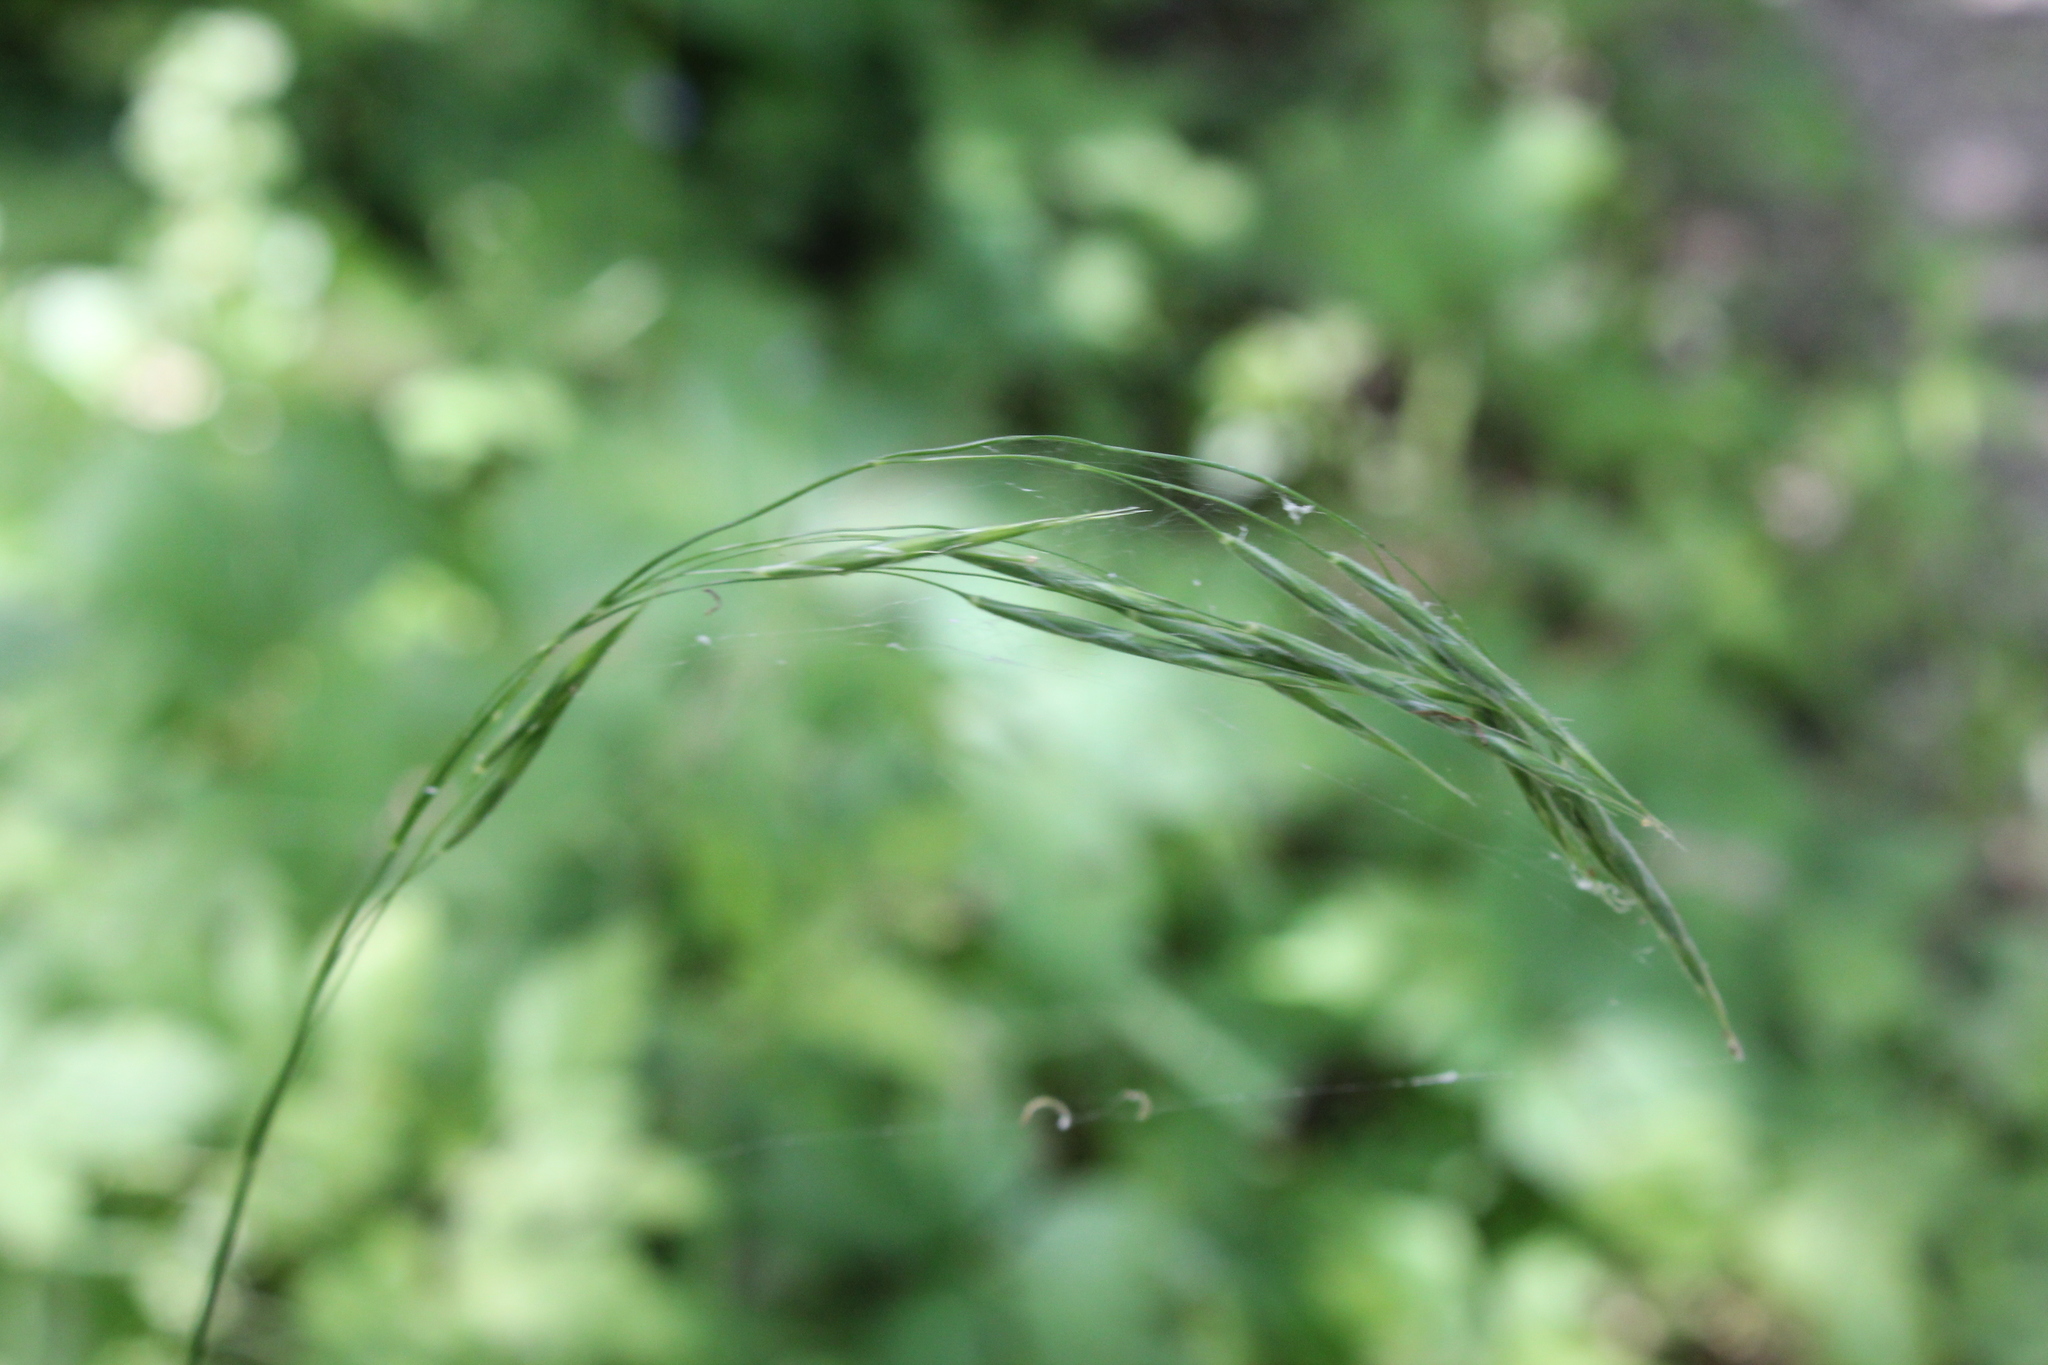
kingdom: Plantae
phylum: Tracheophyta
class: Liliopsida
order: Poales
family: Poaceae
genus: Bromus
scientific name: Bromus pubescens
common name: Hairy wood brome grass
